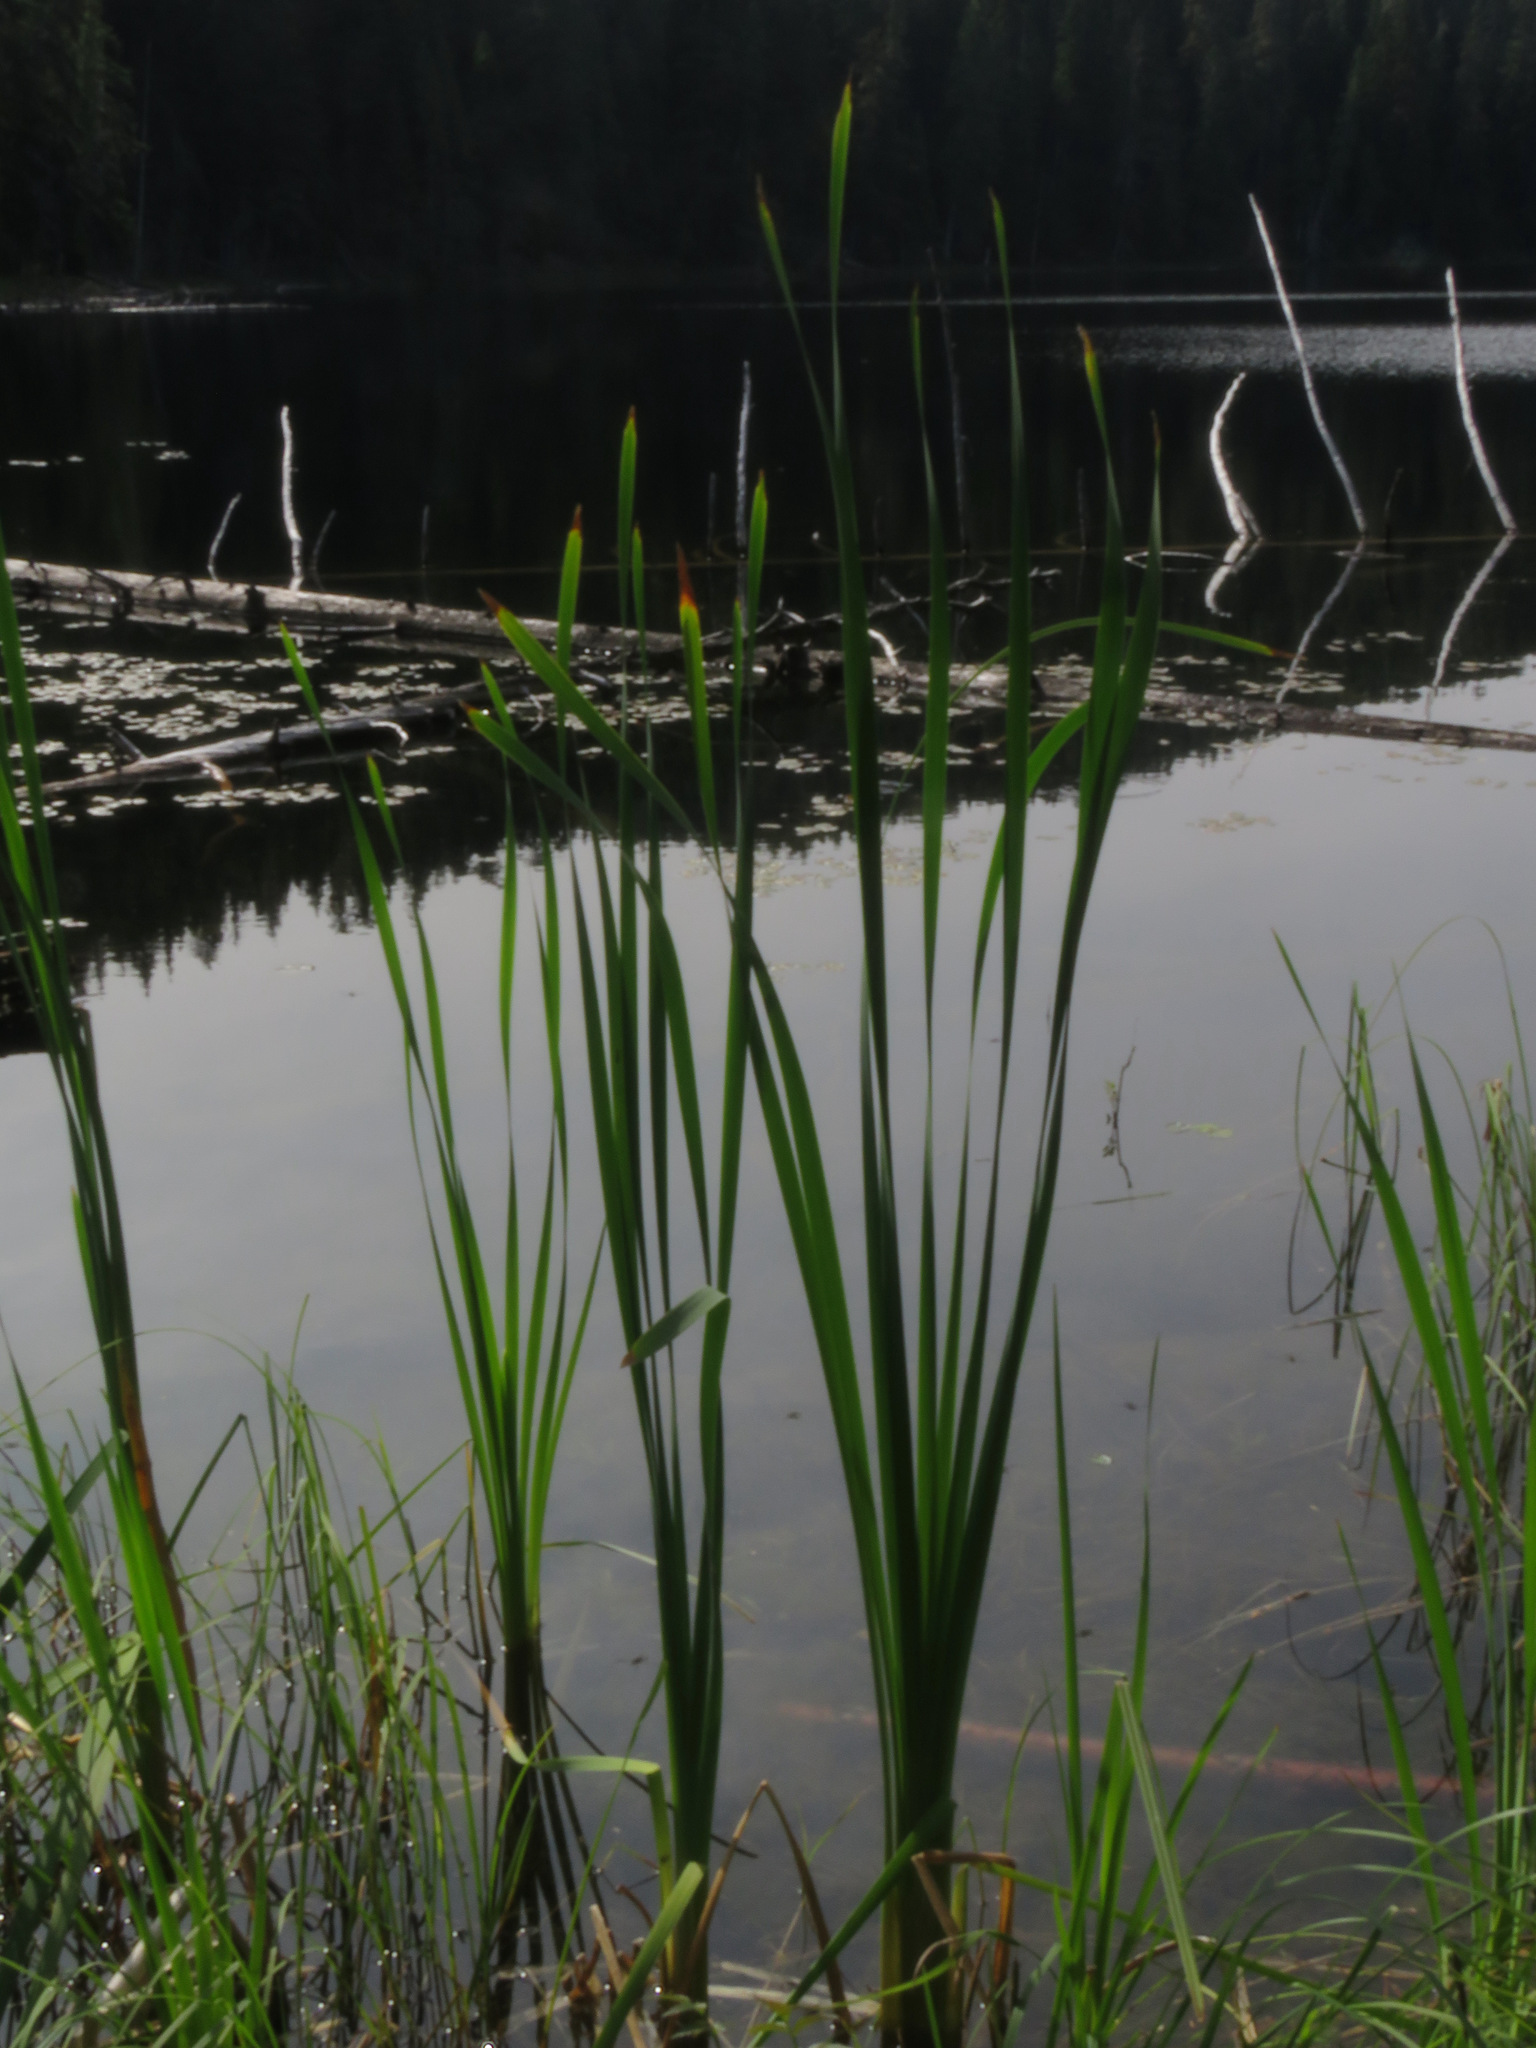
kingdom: Plantae
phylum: Tracheophyta
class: Liliopsida
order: Poales
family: Typhaceae
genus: Typha
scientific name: Typha latifolia
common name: Broadleaf cattail
